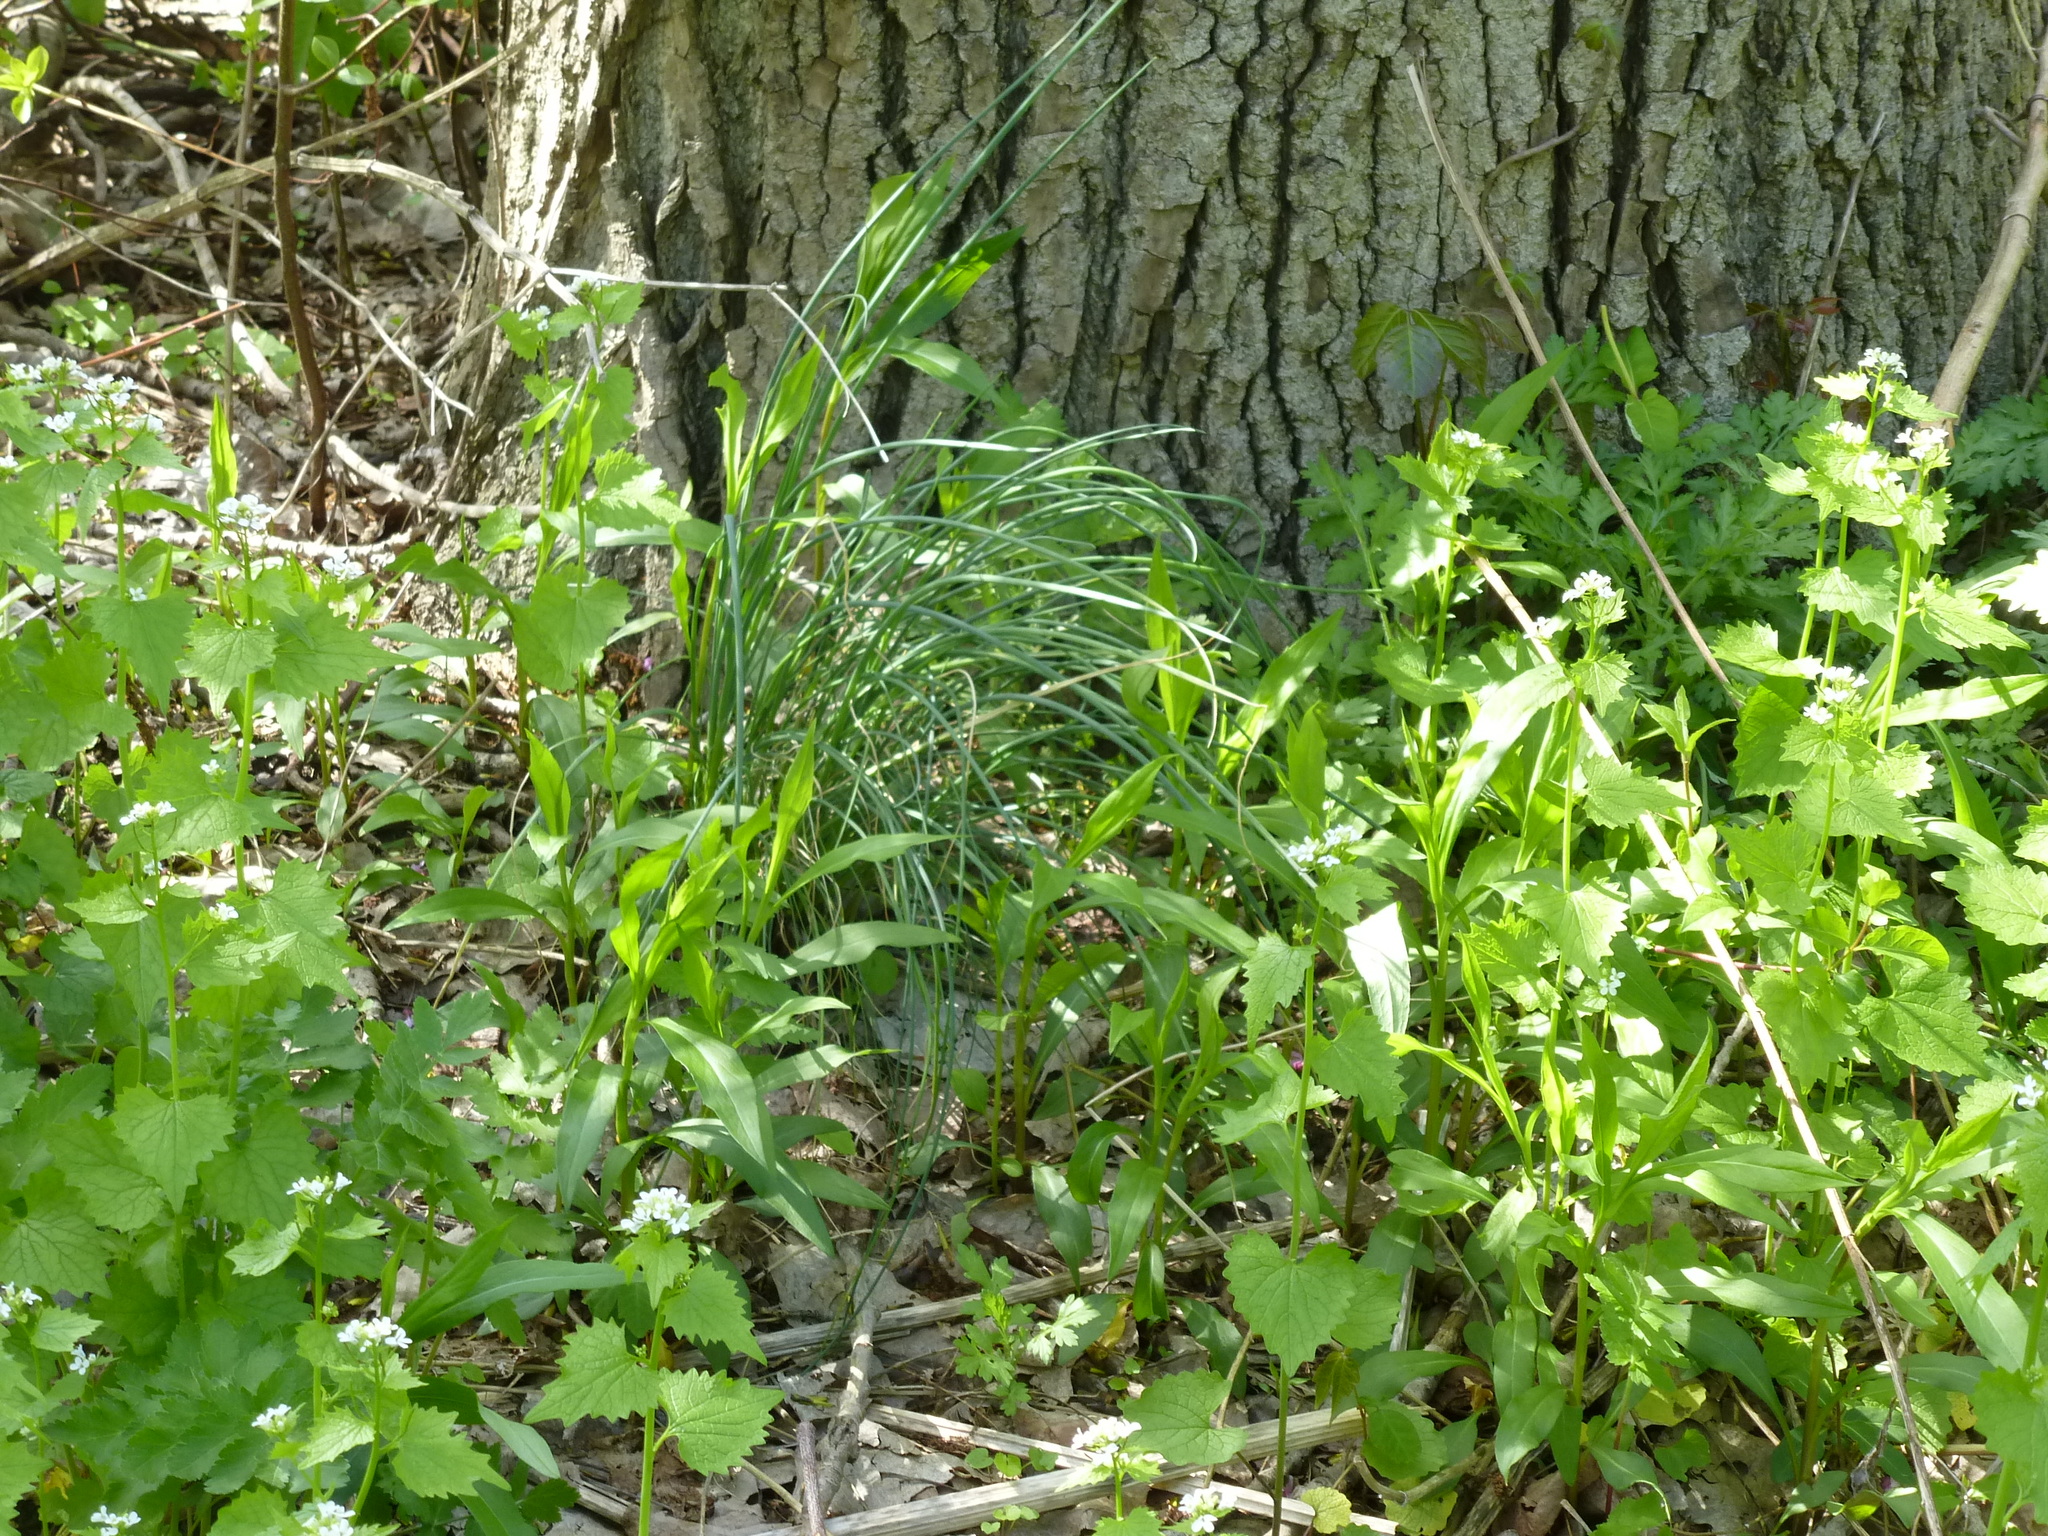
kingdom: Plantae
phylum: Tracheophyta
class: Liliopsida
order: Asparagales
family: Amaryllidaceae
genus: Allium
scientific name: Allium vineale
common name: Crow garlic
